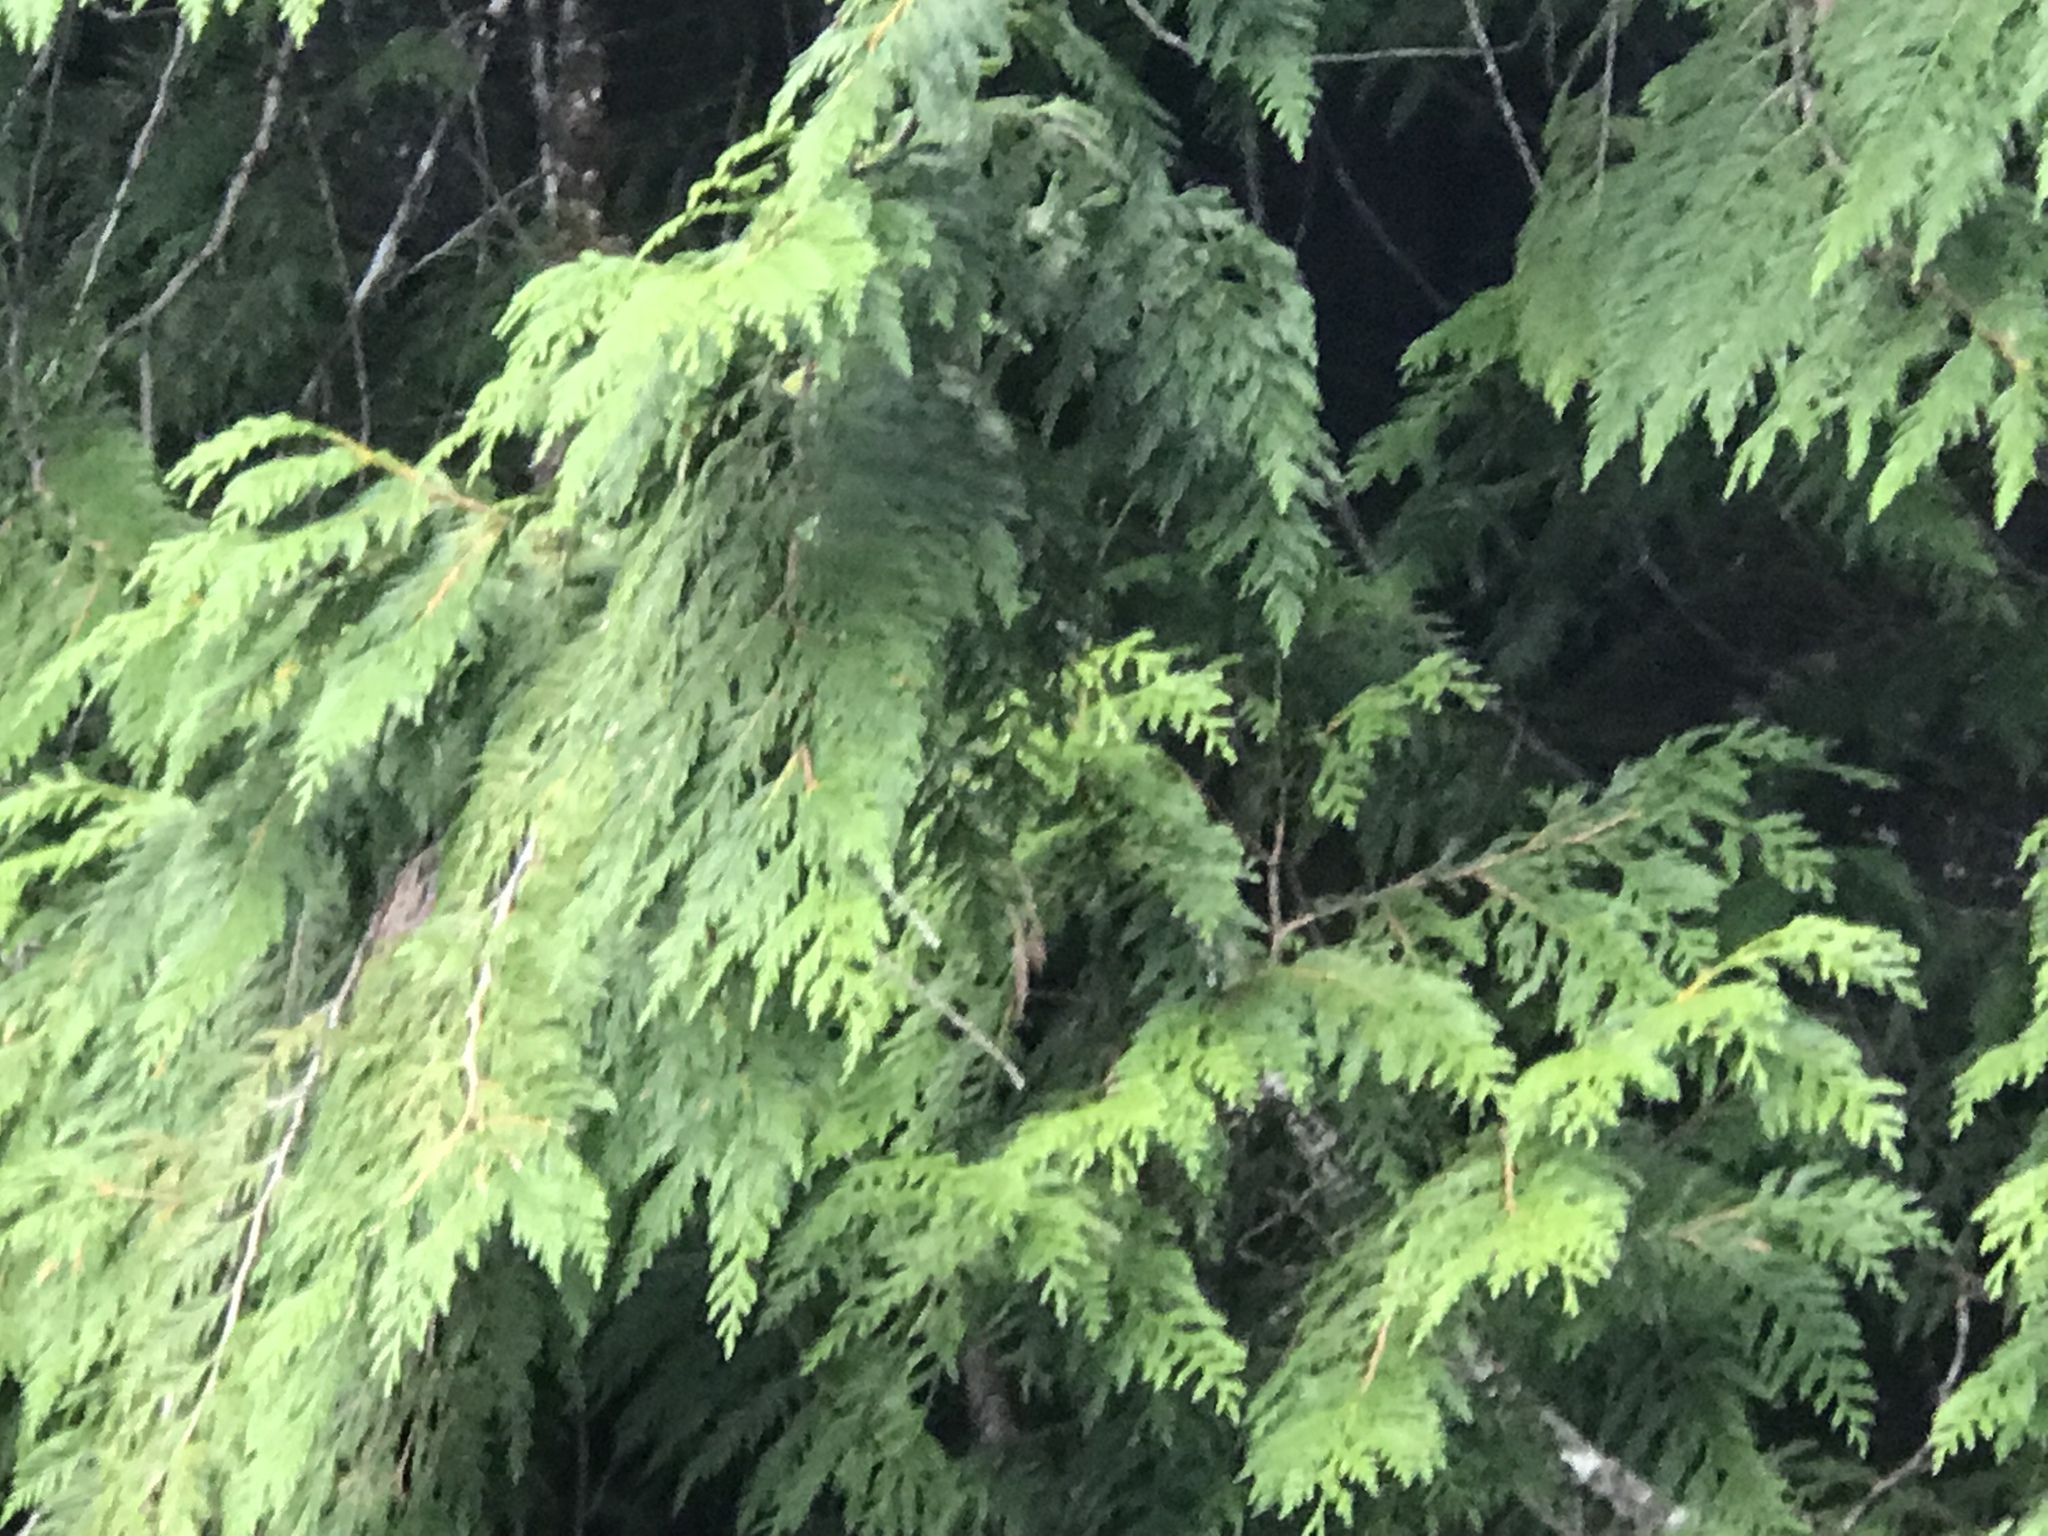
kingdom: Plantae
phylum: Tracheophyta
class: Pinopsida
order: Pinales
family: Cupressaceae
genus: Thuja
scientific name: Thuja plicata
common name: Western red-cedar
